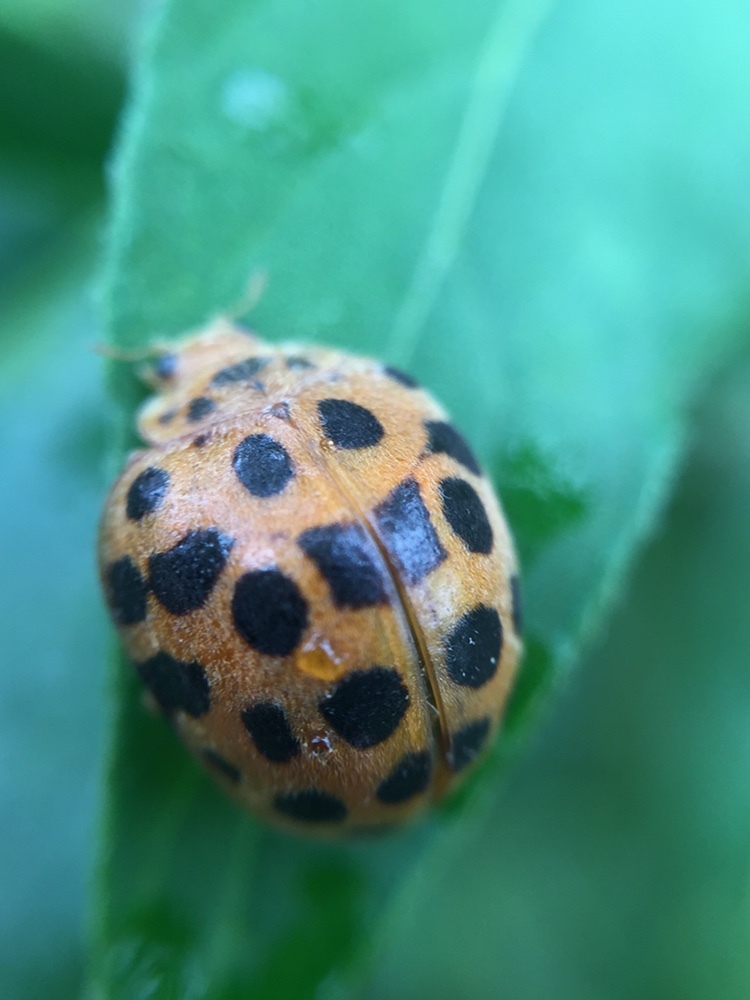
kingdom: Animalia
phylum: Arthropoda
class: Insecta
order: Coleoptera
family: Coccinellidae
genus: Henosepilachna
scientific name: Henosepilachna vigintioctopunctata
